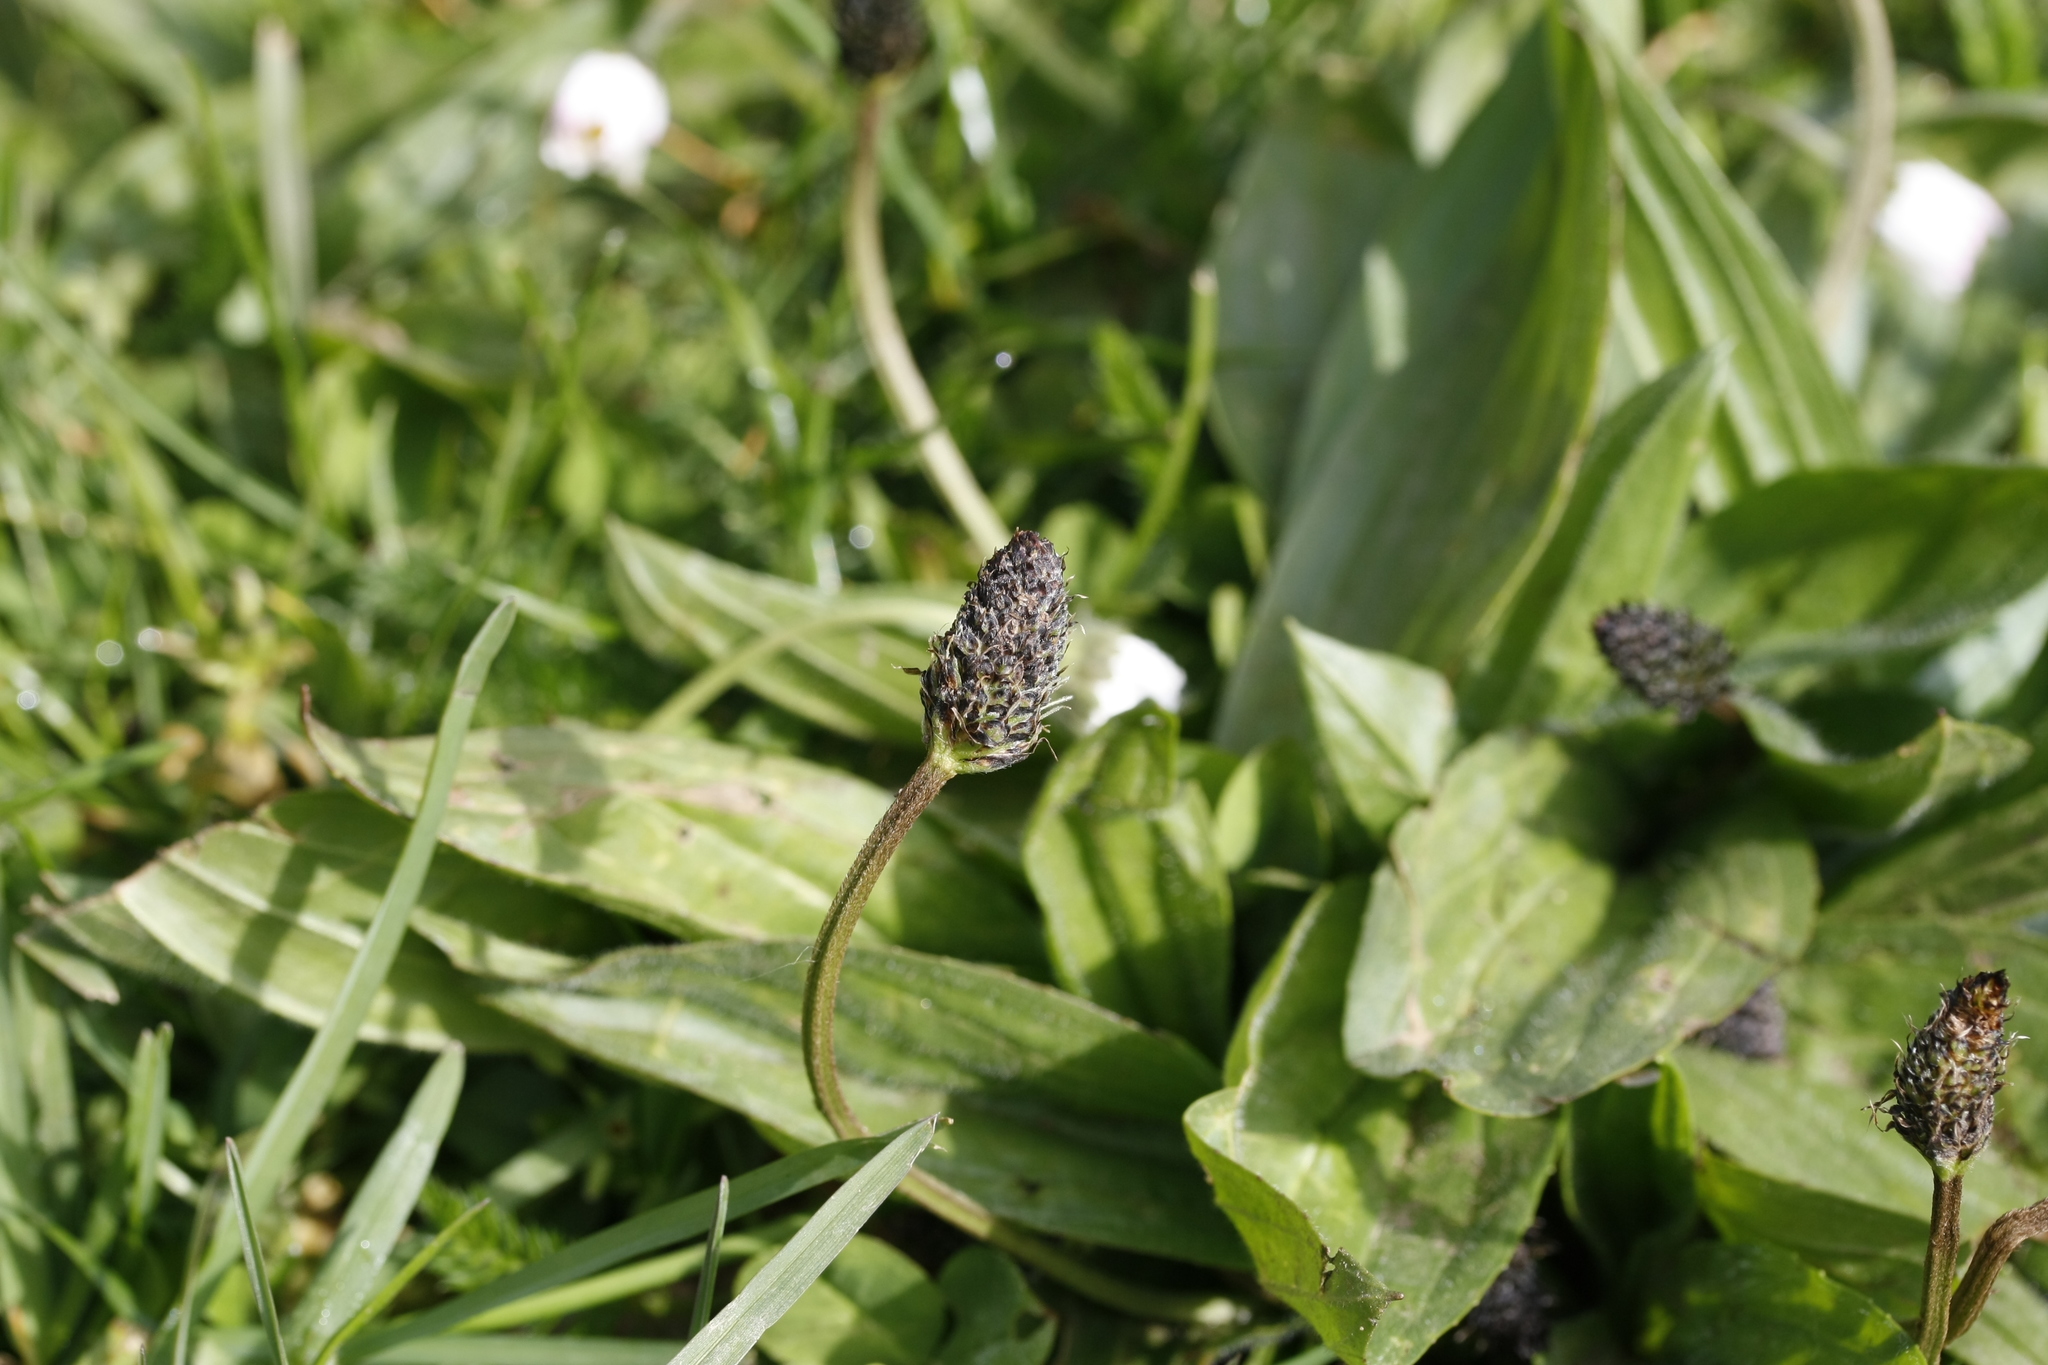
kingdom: Plantae
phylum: Tracheophyta
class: Magnoliopsida
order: Lamiales
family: Plantaginaceae
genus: Plantago
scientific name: Plantago lanceolata
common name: Ribwort plantain
